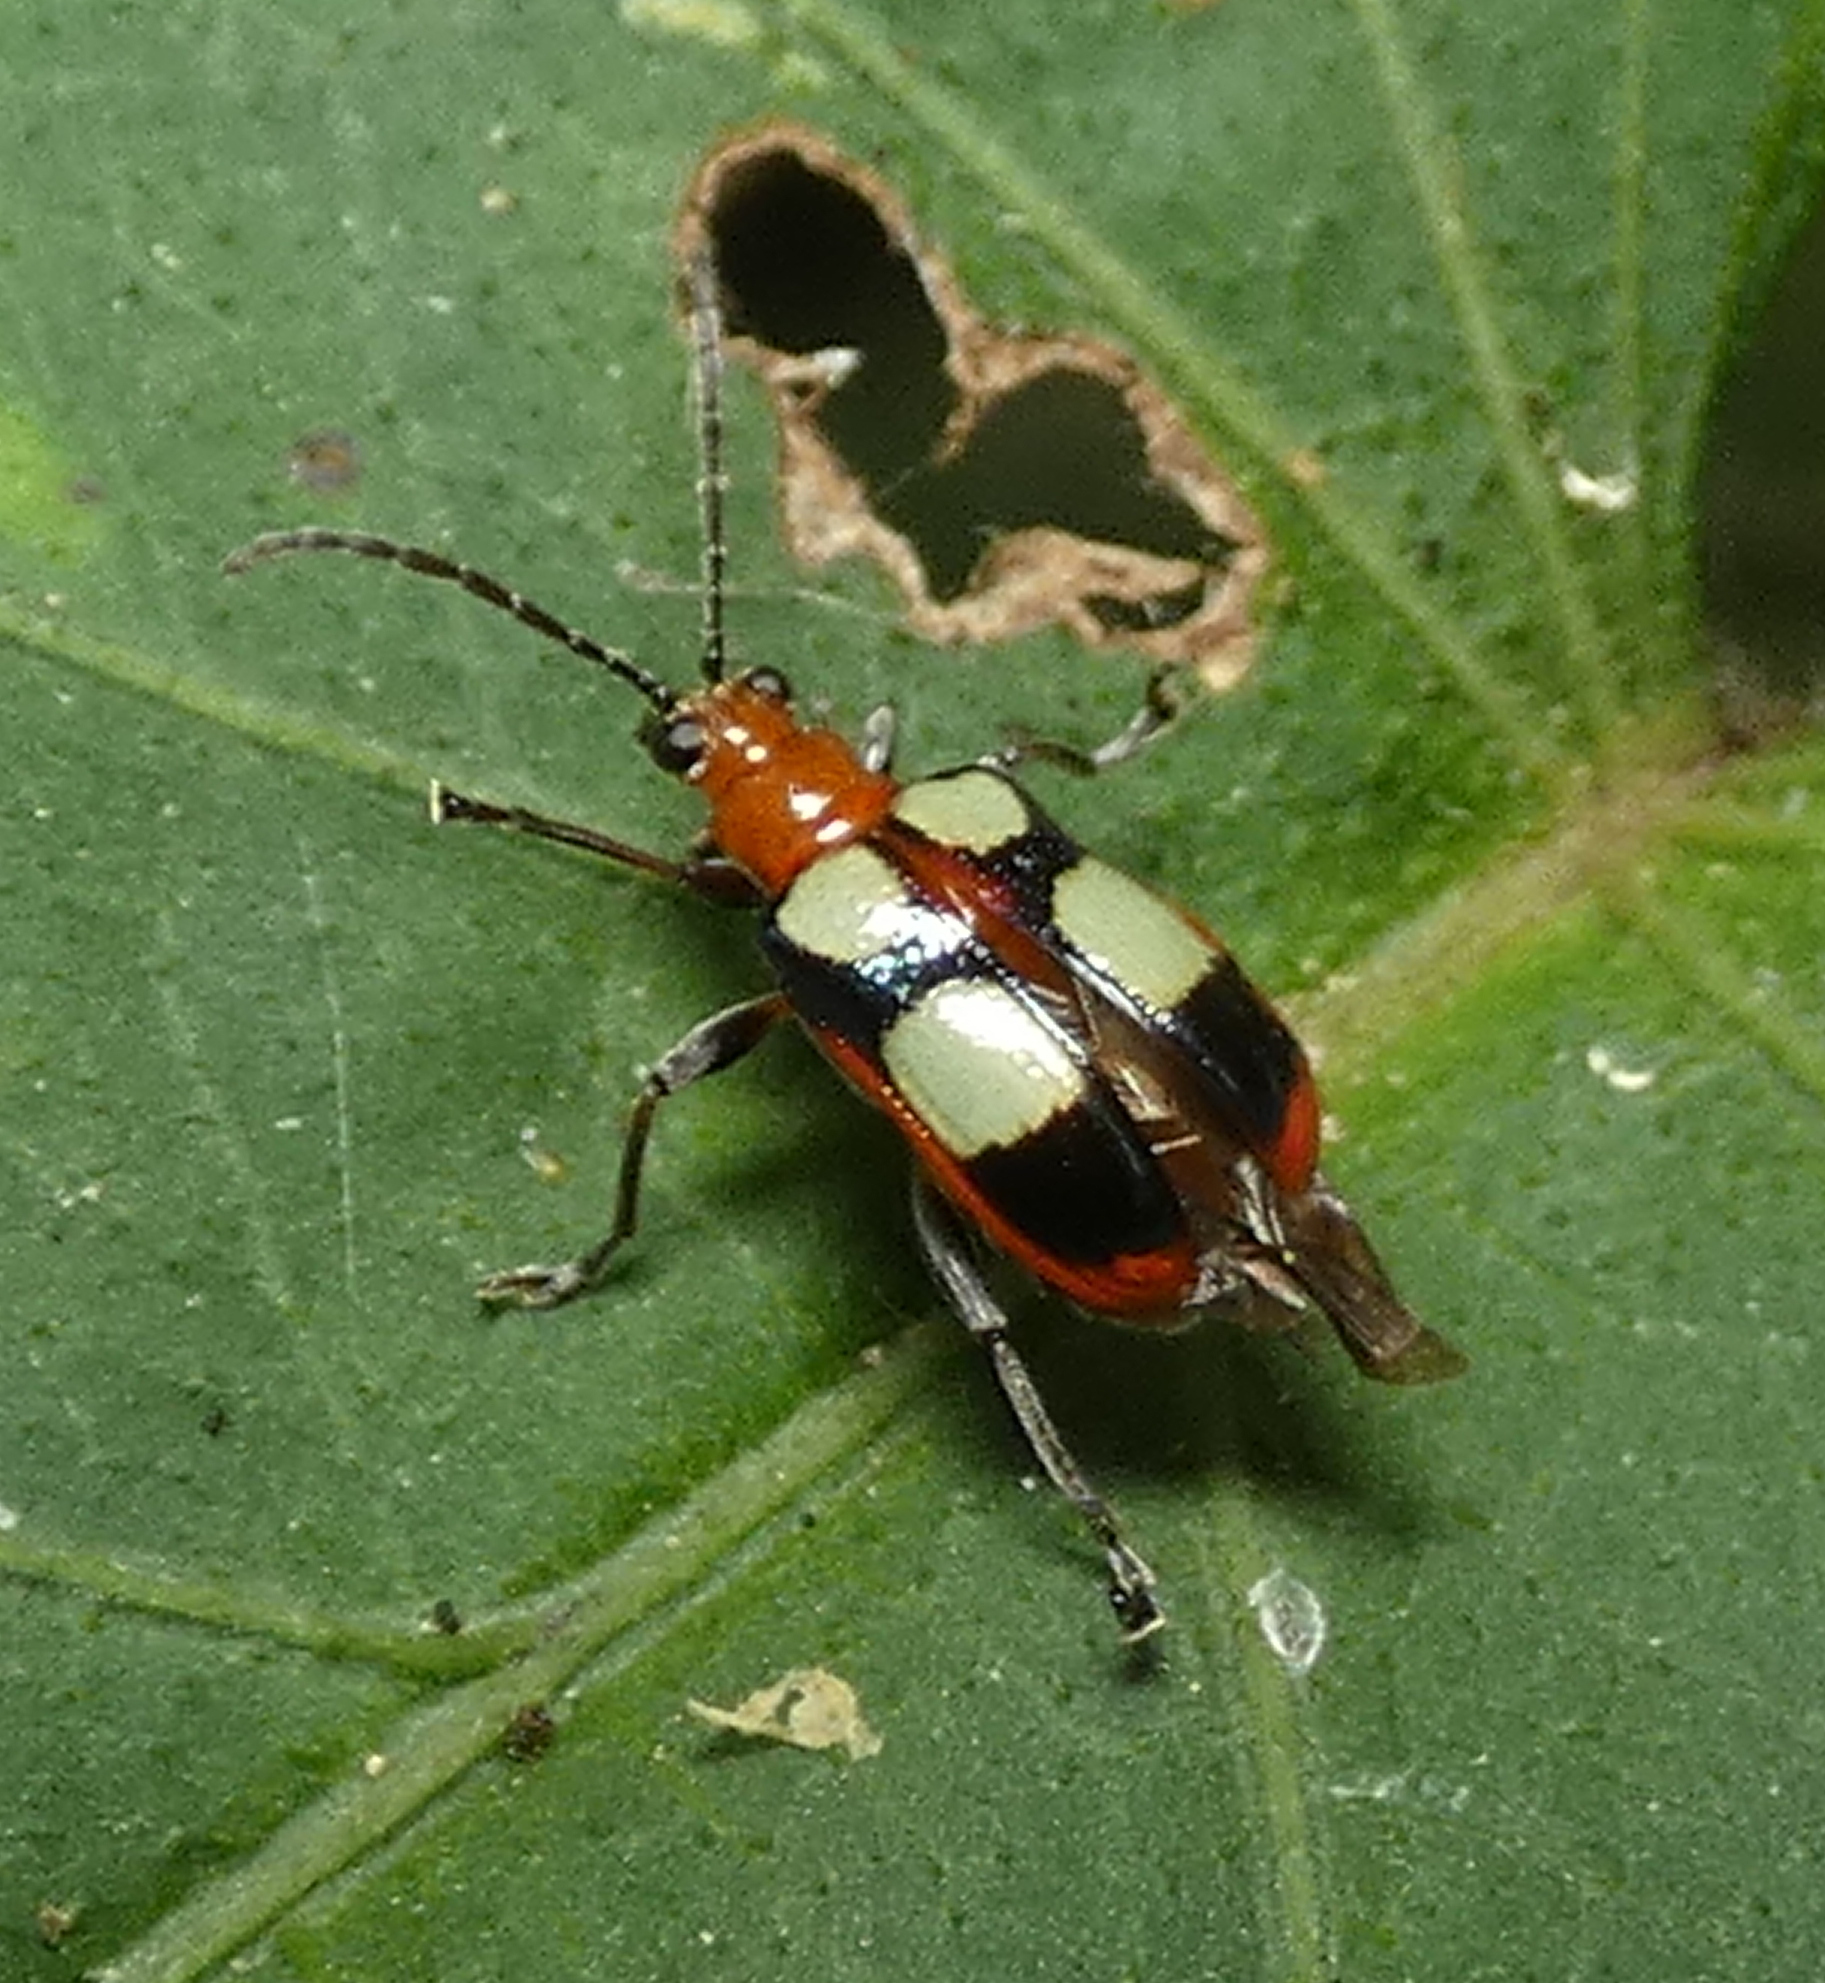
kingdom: Animalia
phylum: Arthropoda
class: Insecta
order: Coleoptera
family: Chrysomelidae
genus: Neolema
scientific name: Neolema
